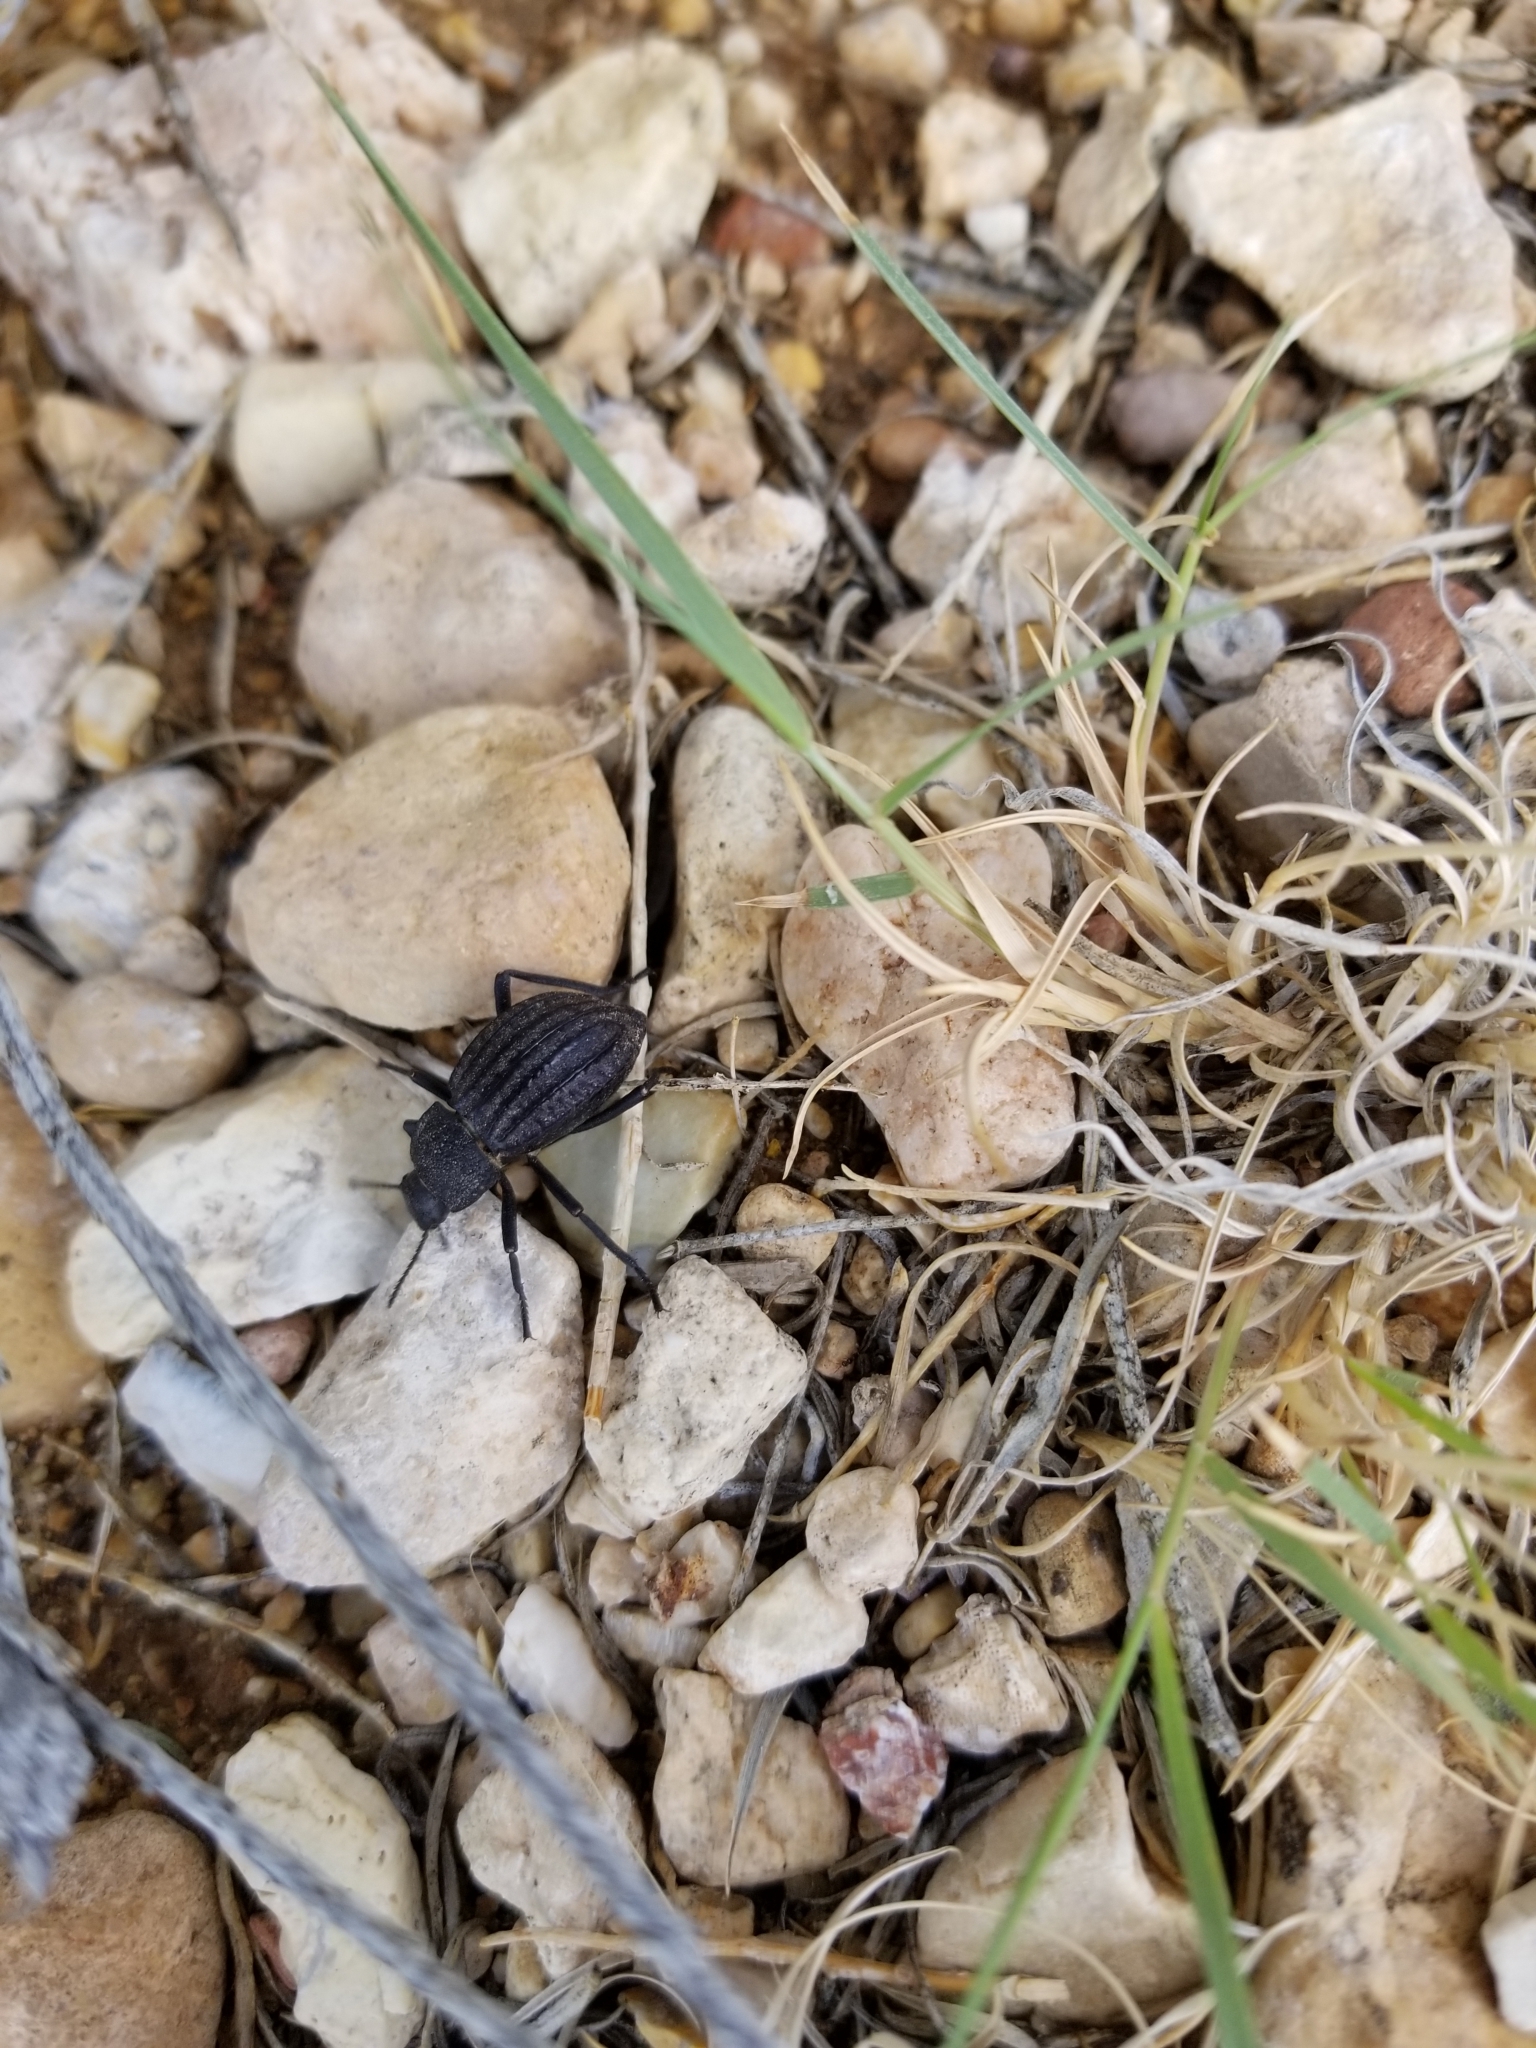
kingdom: Animalia
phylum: Arthropoda
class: Insecta
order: Coleoptera
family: Tenebrionidae
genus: Philolithus
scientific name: Philolithus sordidus
